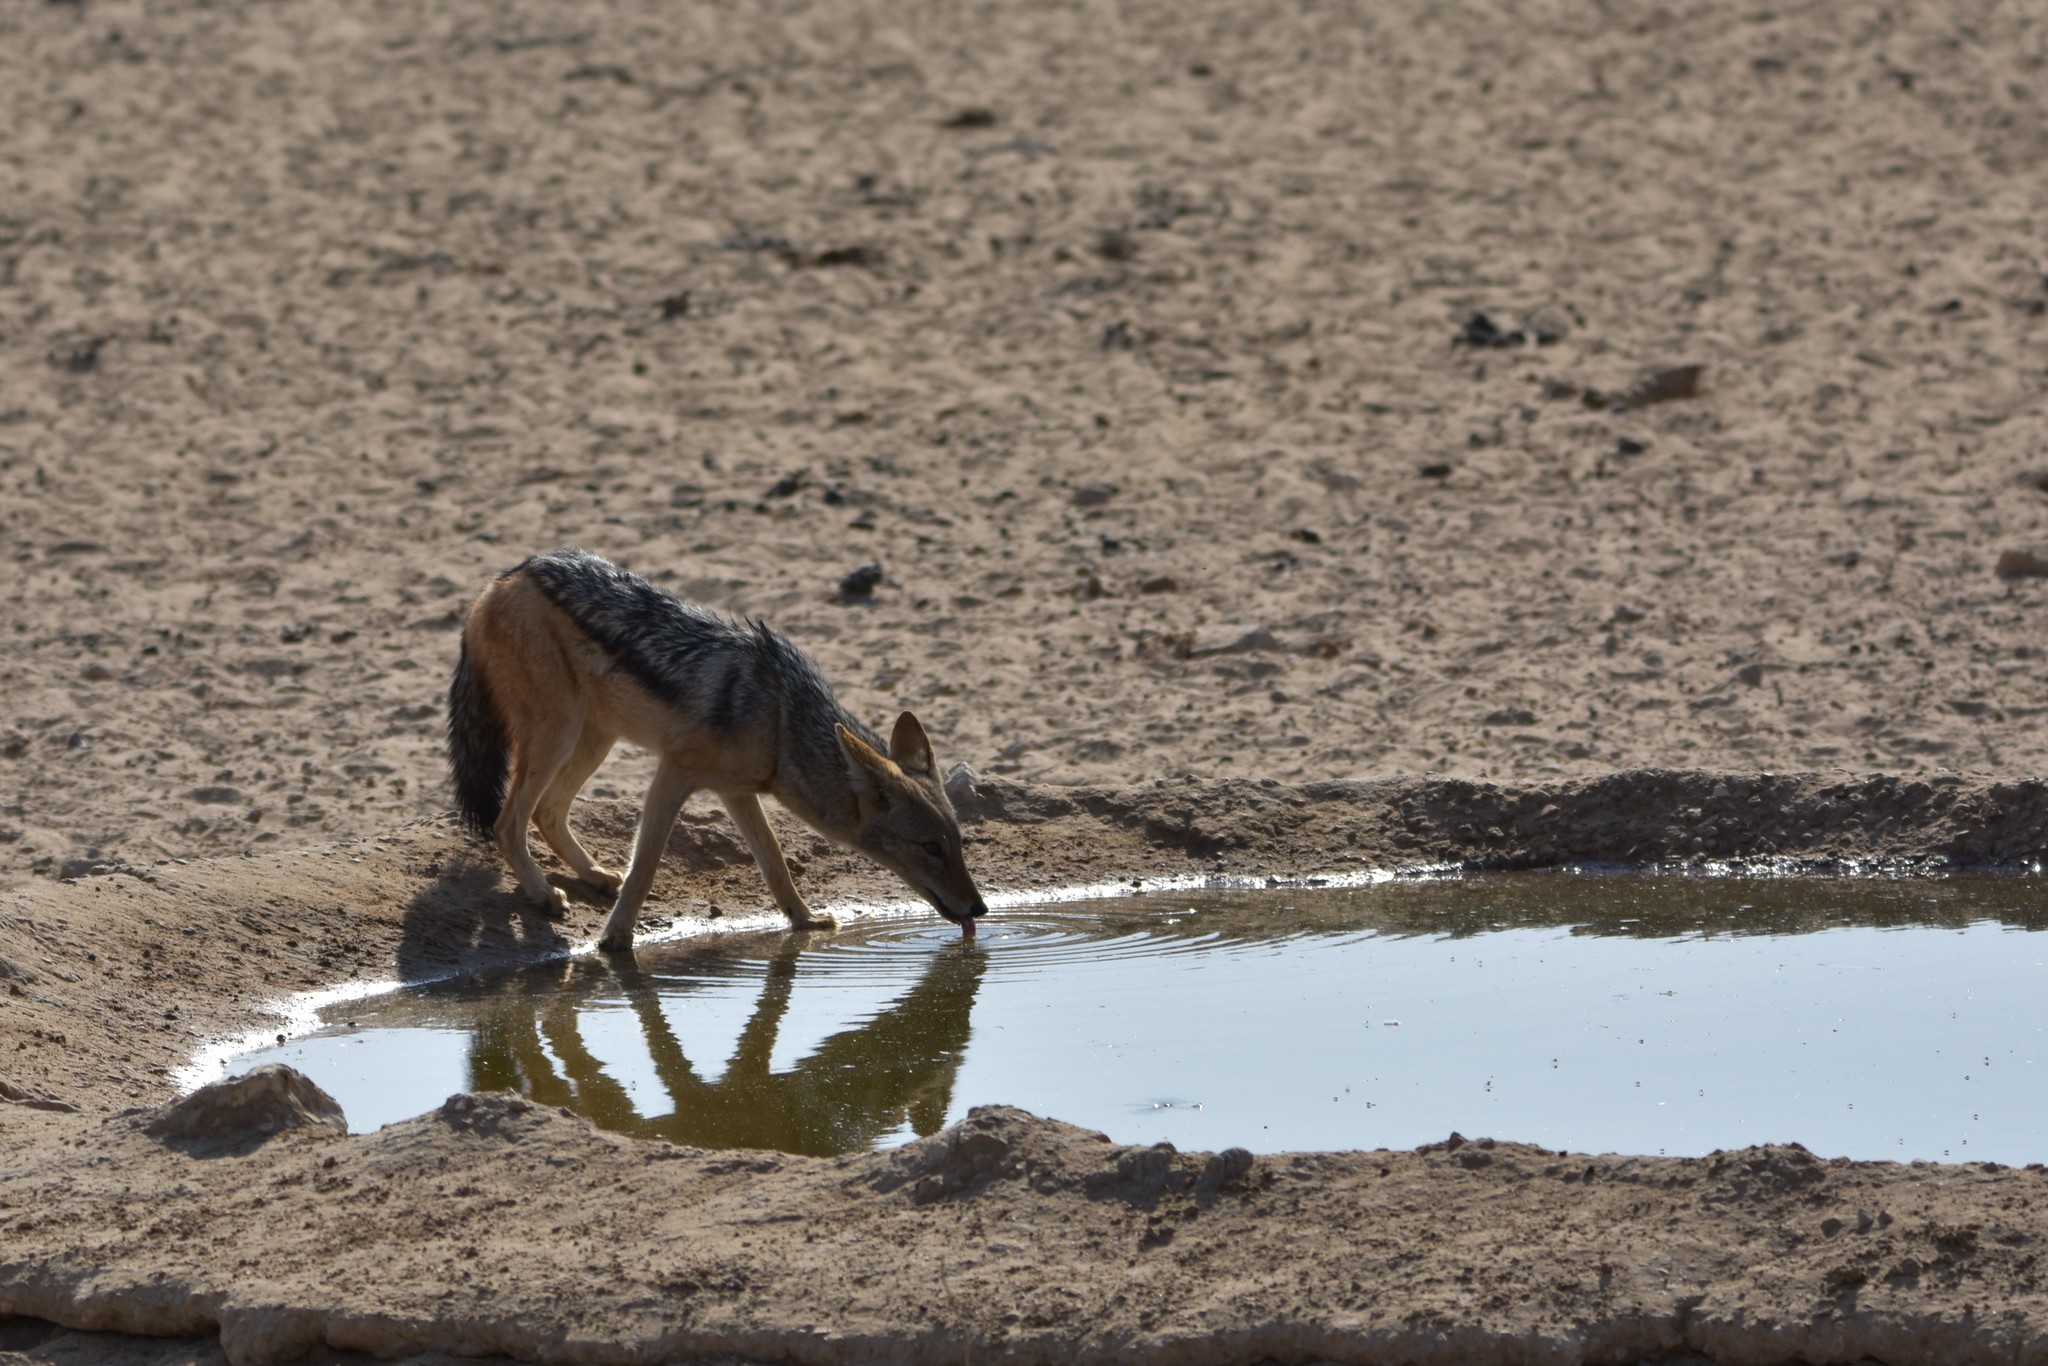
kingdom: Animalia
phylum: Chordata
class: Mammalia
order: Carnivora
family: Canidae
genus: Lupulella
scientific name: Lupulella
